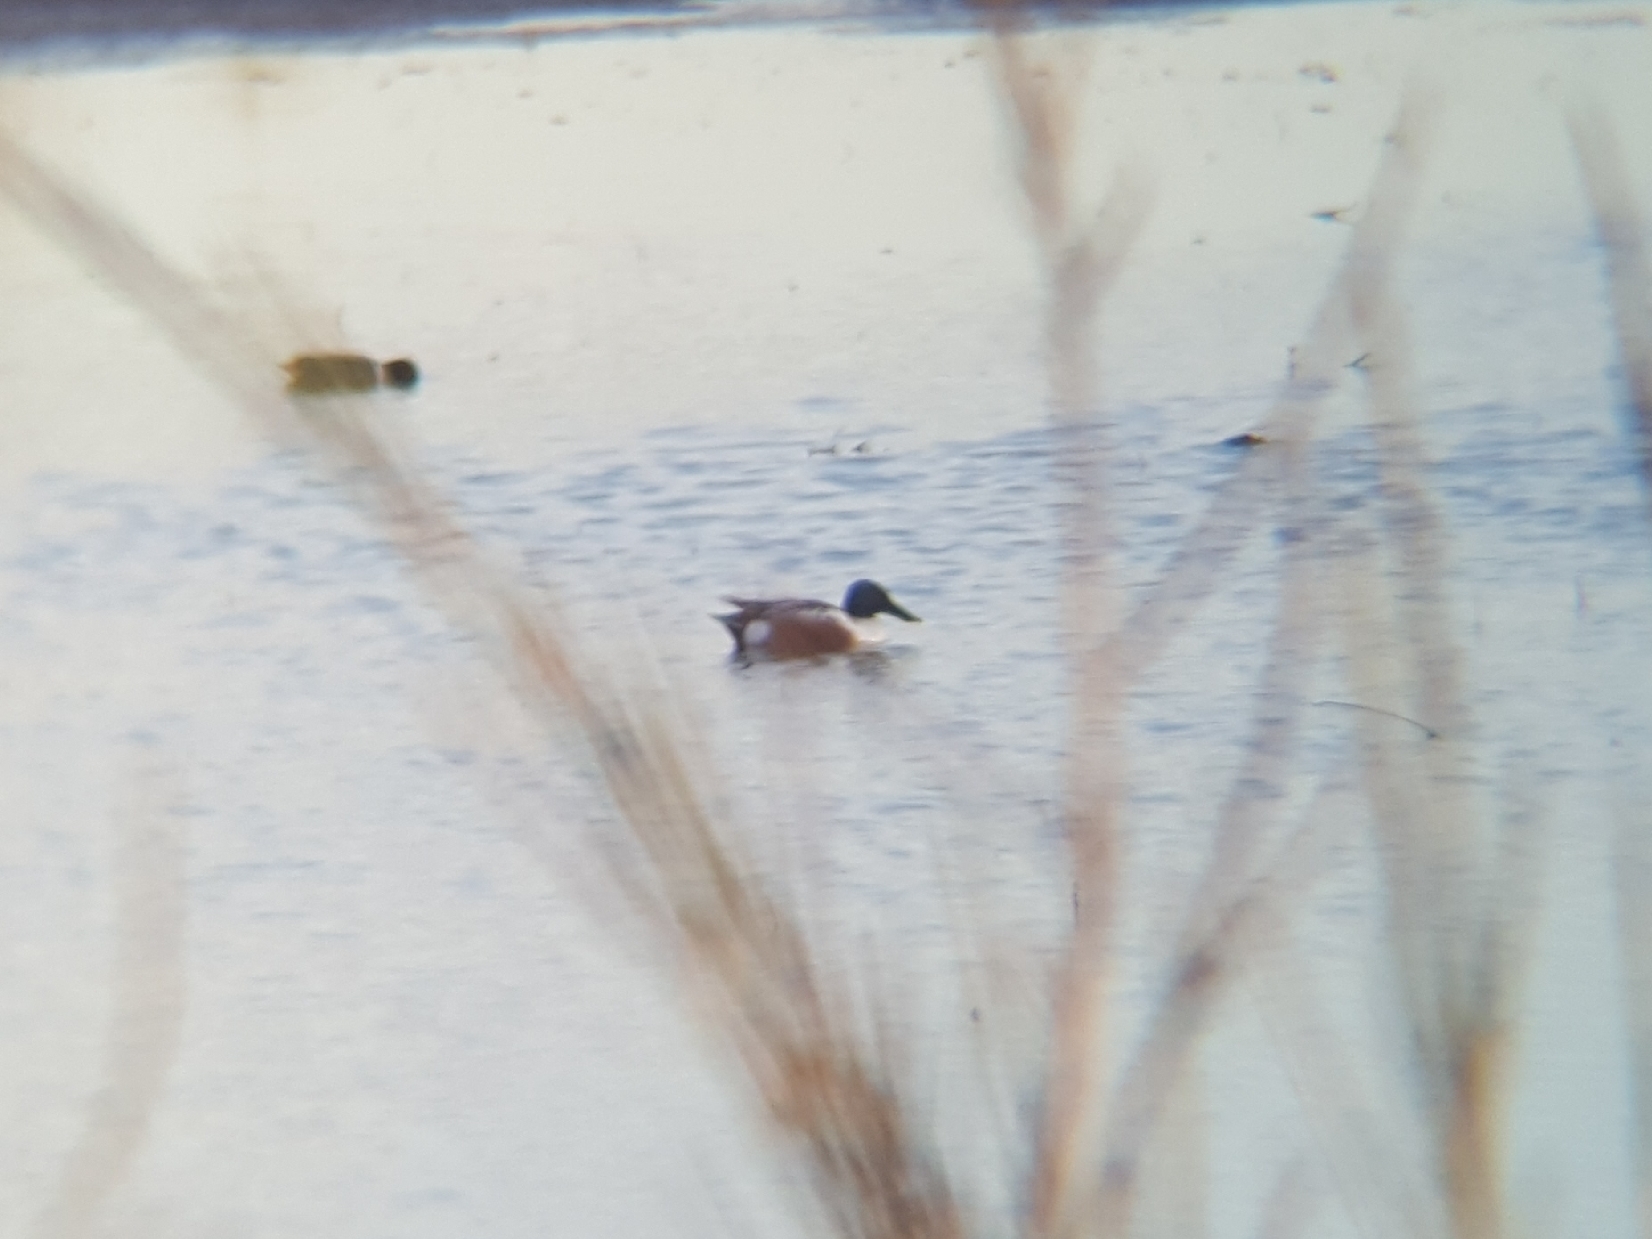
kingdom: Animalia
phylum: Chordata
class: Aves
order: Anseriformes
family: Anatidae
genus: Spatula
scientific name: Spatula clypeata
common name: Northern shoveler
